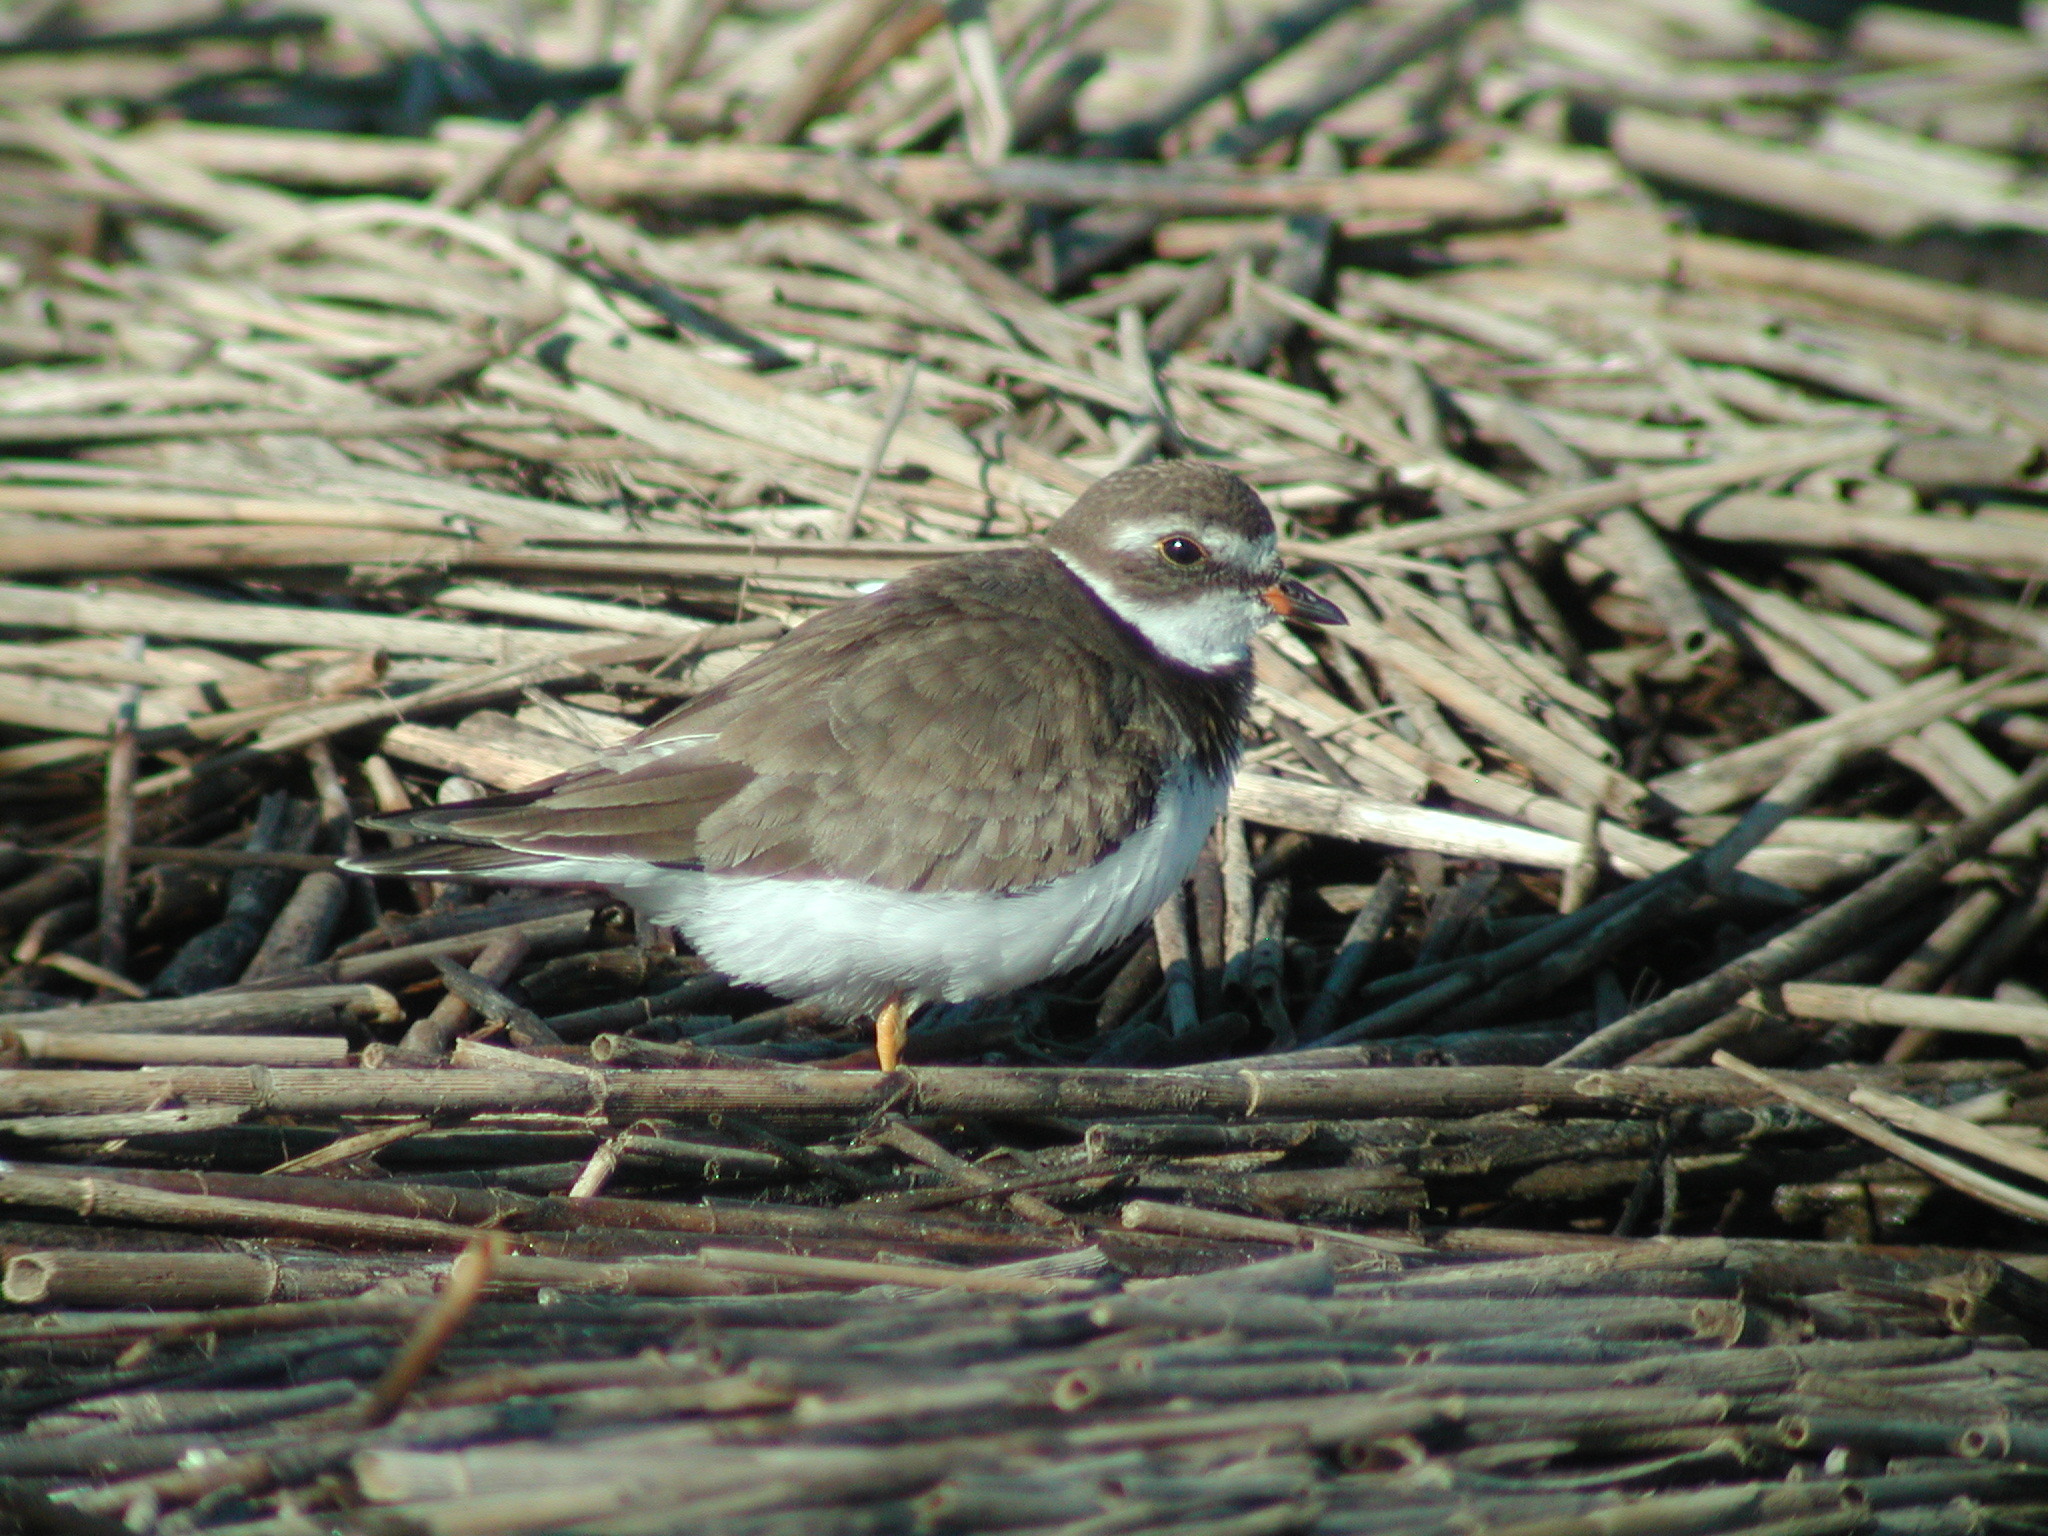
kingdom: Animalia
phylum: Chordata
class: Aves
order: Charadriiformes
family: Charadriidae
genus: Charadrius
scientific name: Charadrius semipalmatus
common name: Semipalmated plover
